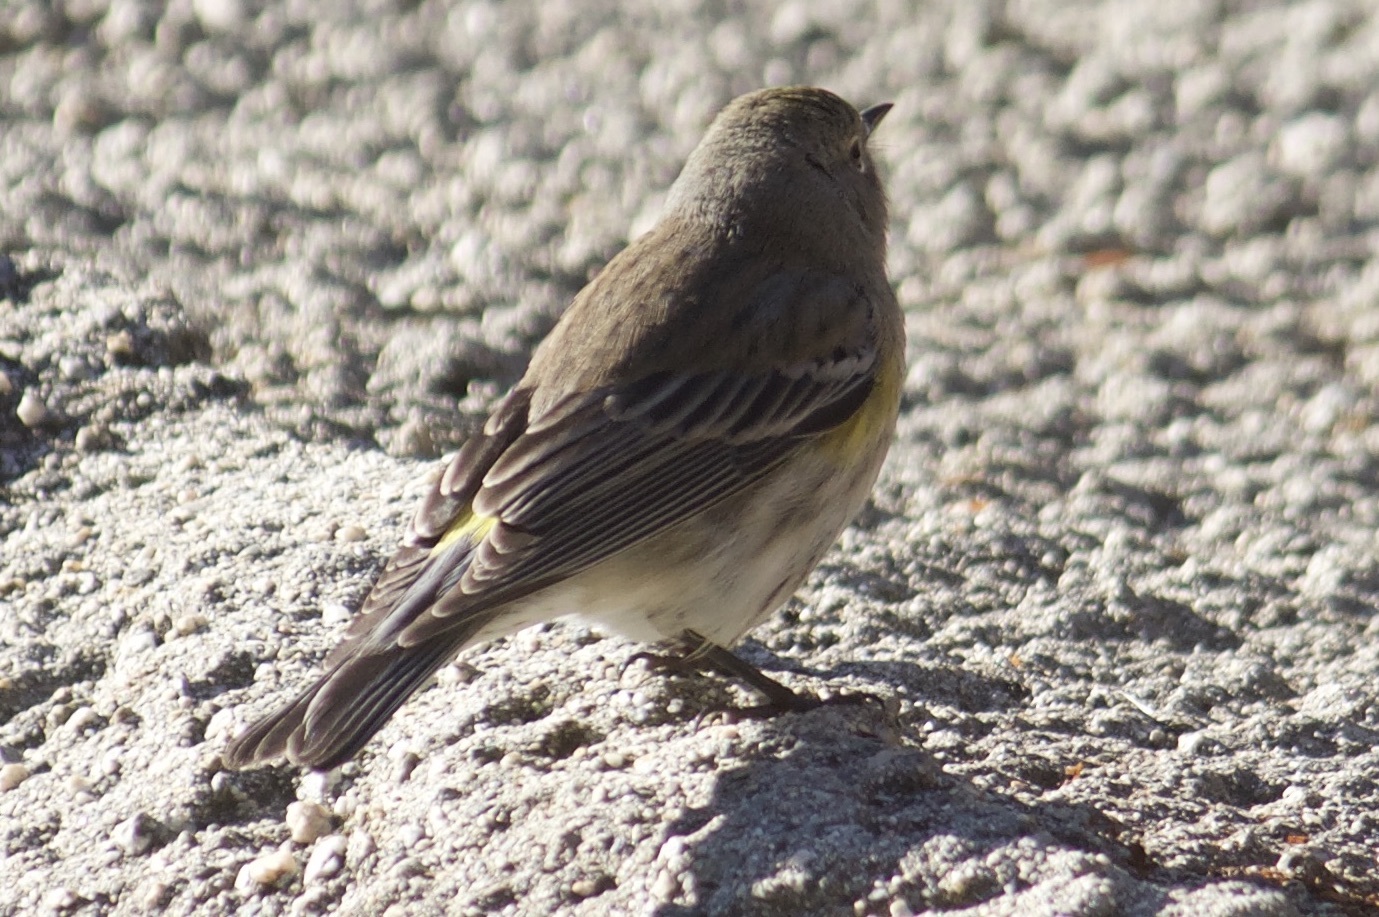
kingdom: Animalia
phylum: Chordata
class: Aves
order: Passeriformes
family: Parulidae
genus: Setophaga
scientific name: Setophaga coronata
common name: Myrtle warbler
